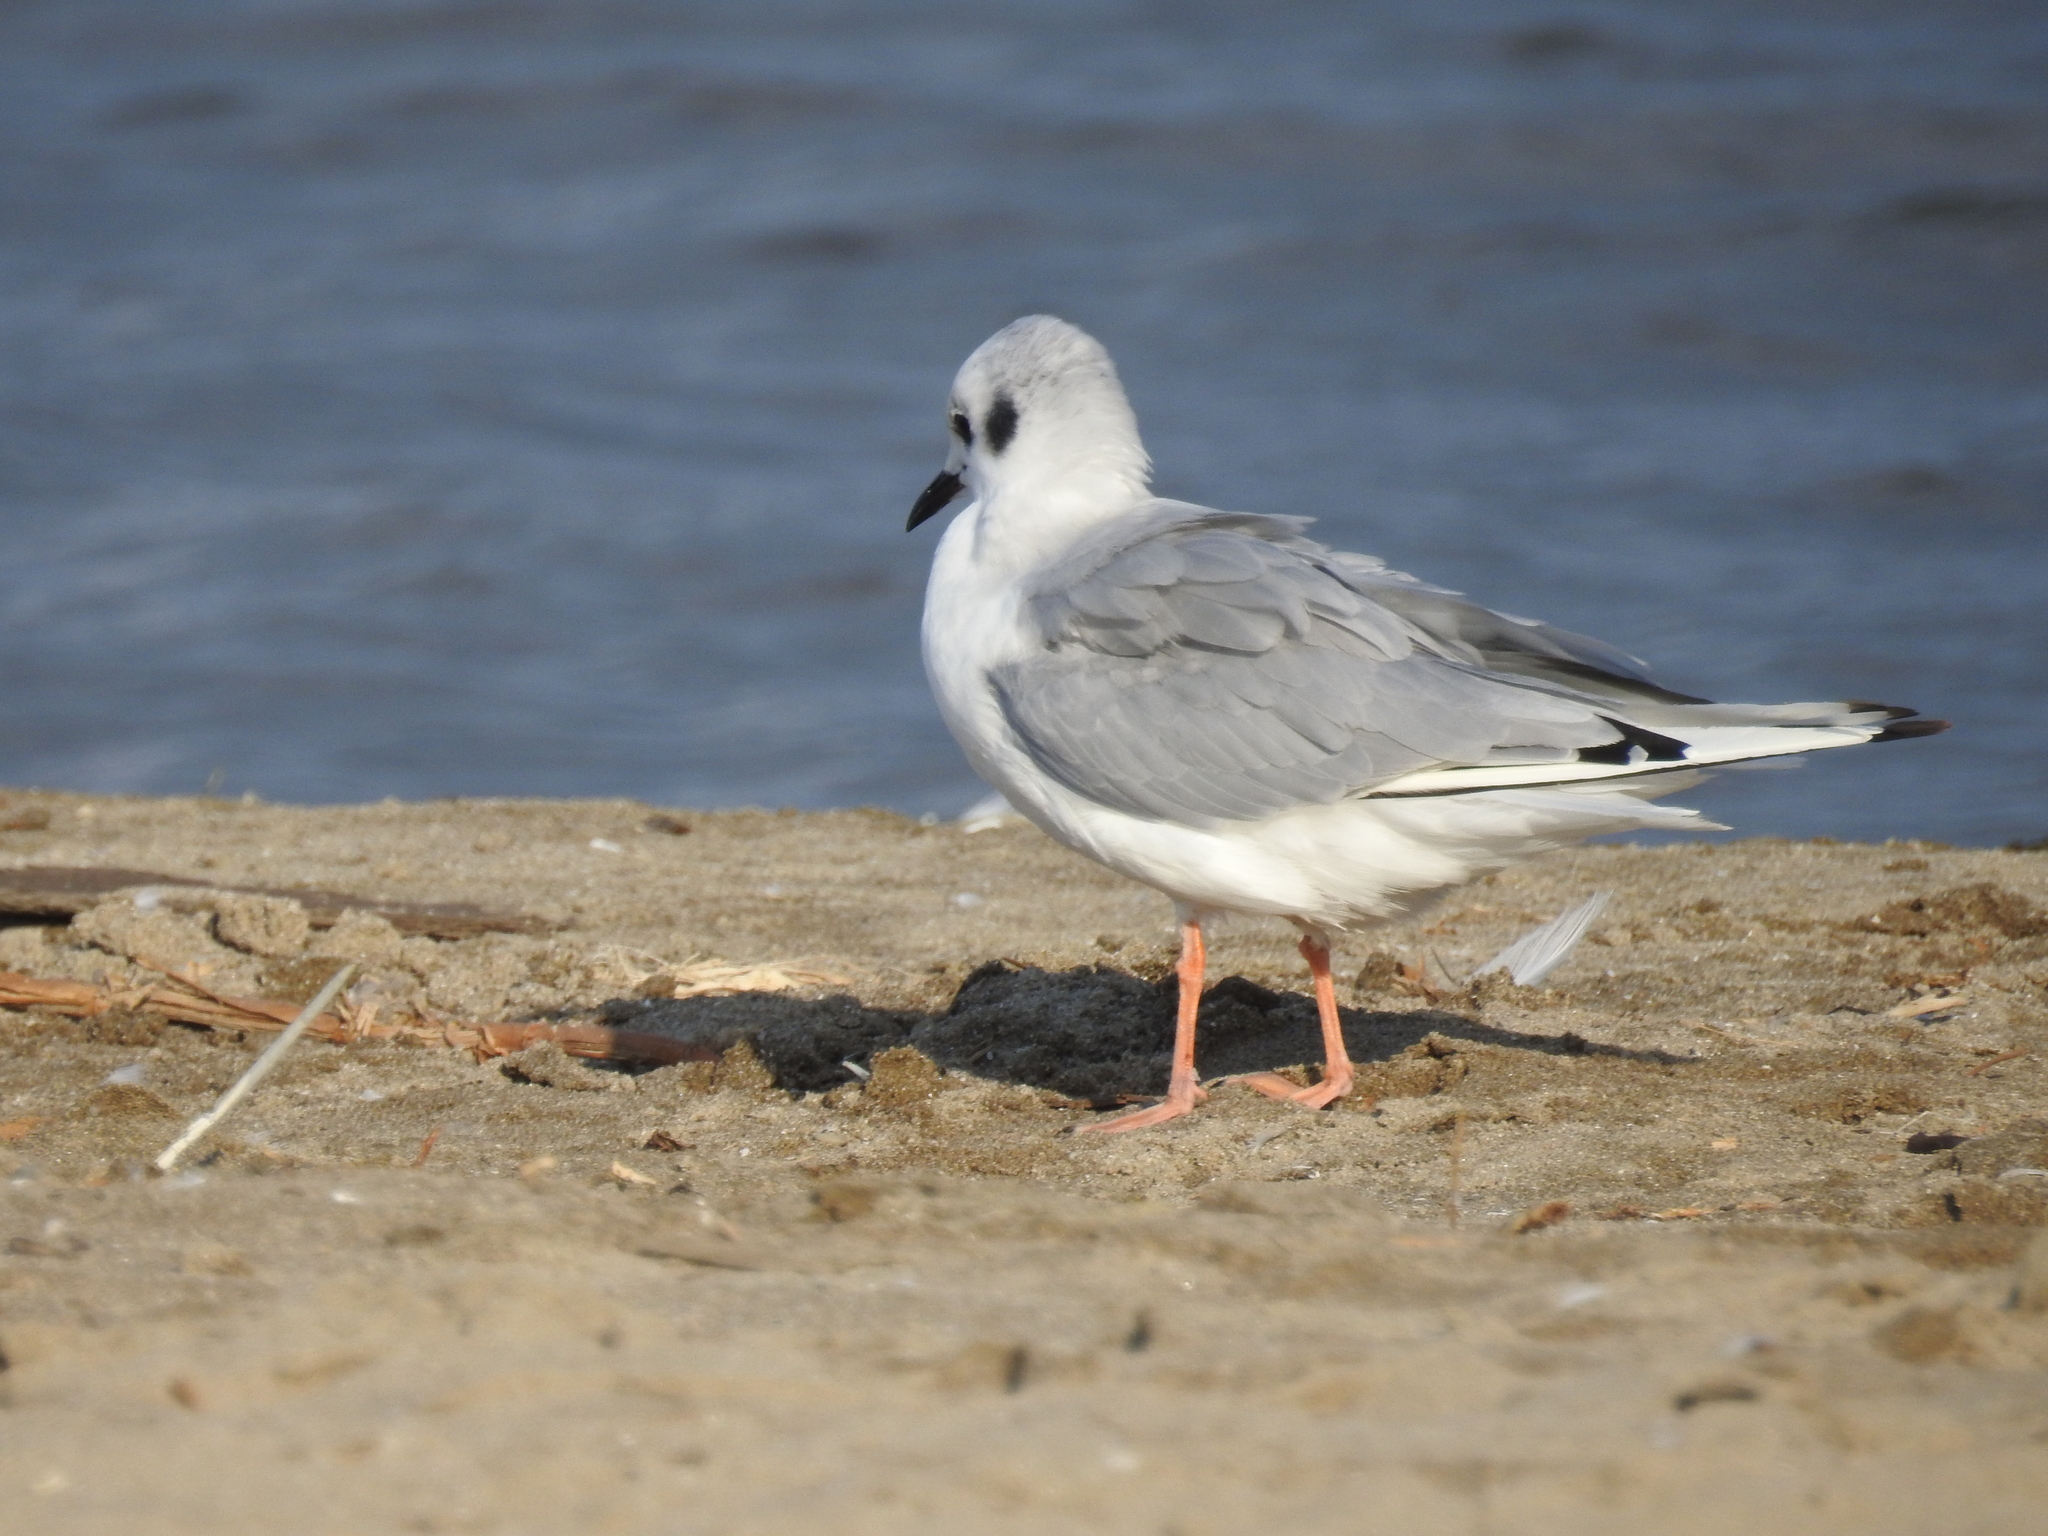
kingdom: Animalia
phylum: Chordata
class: Aves
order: Charadriiformes
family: Laridae
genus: Chroicocephalus
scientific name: Chroicocephalus philadelphia
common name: Bonaparte's gull
